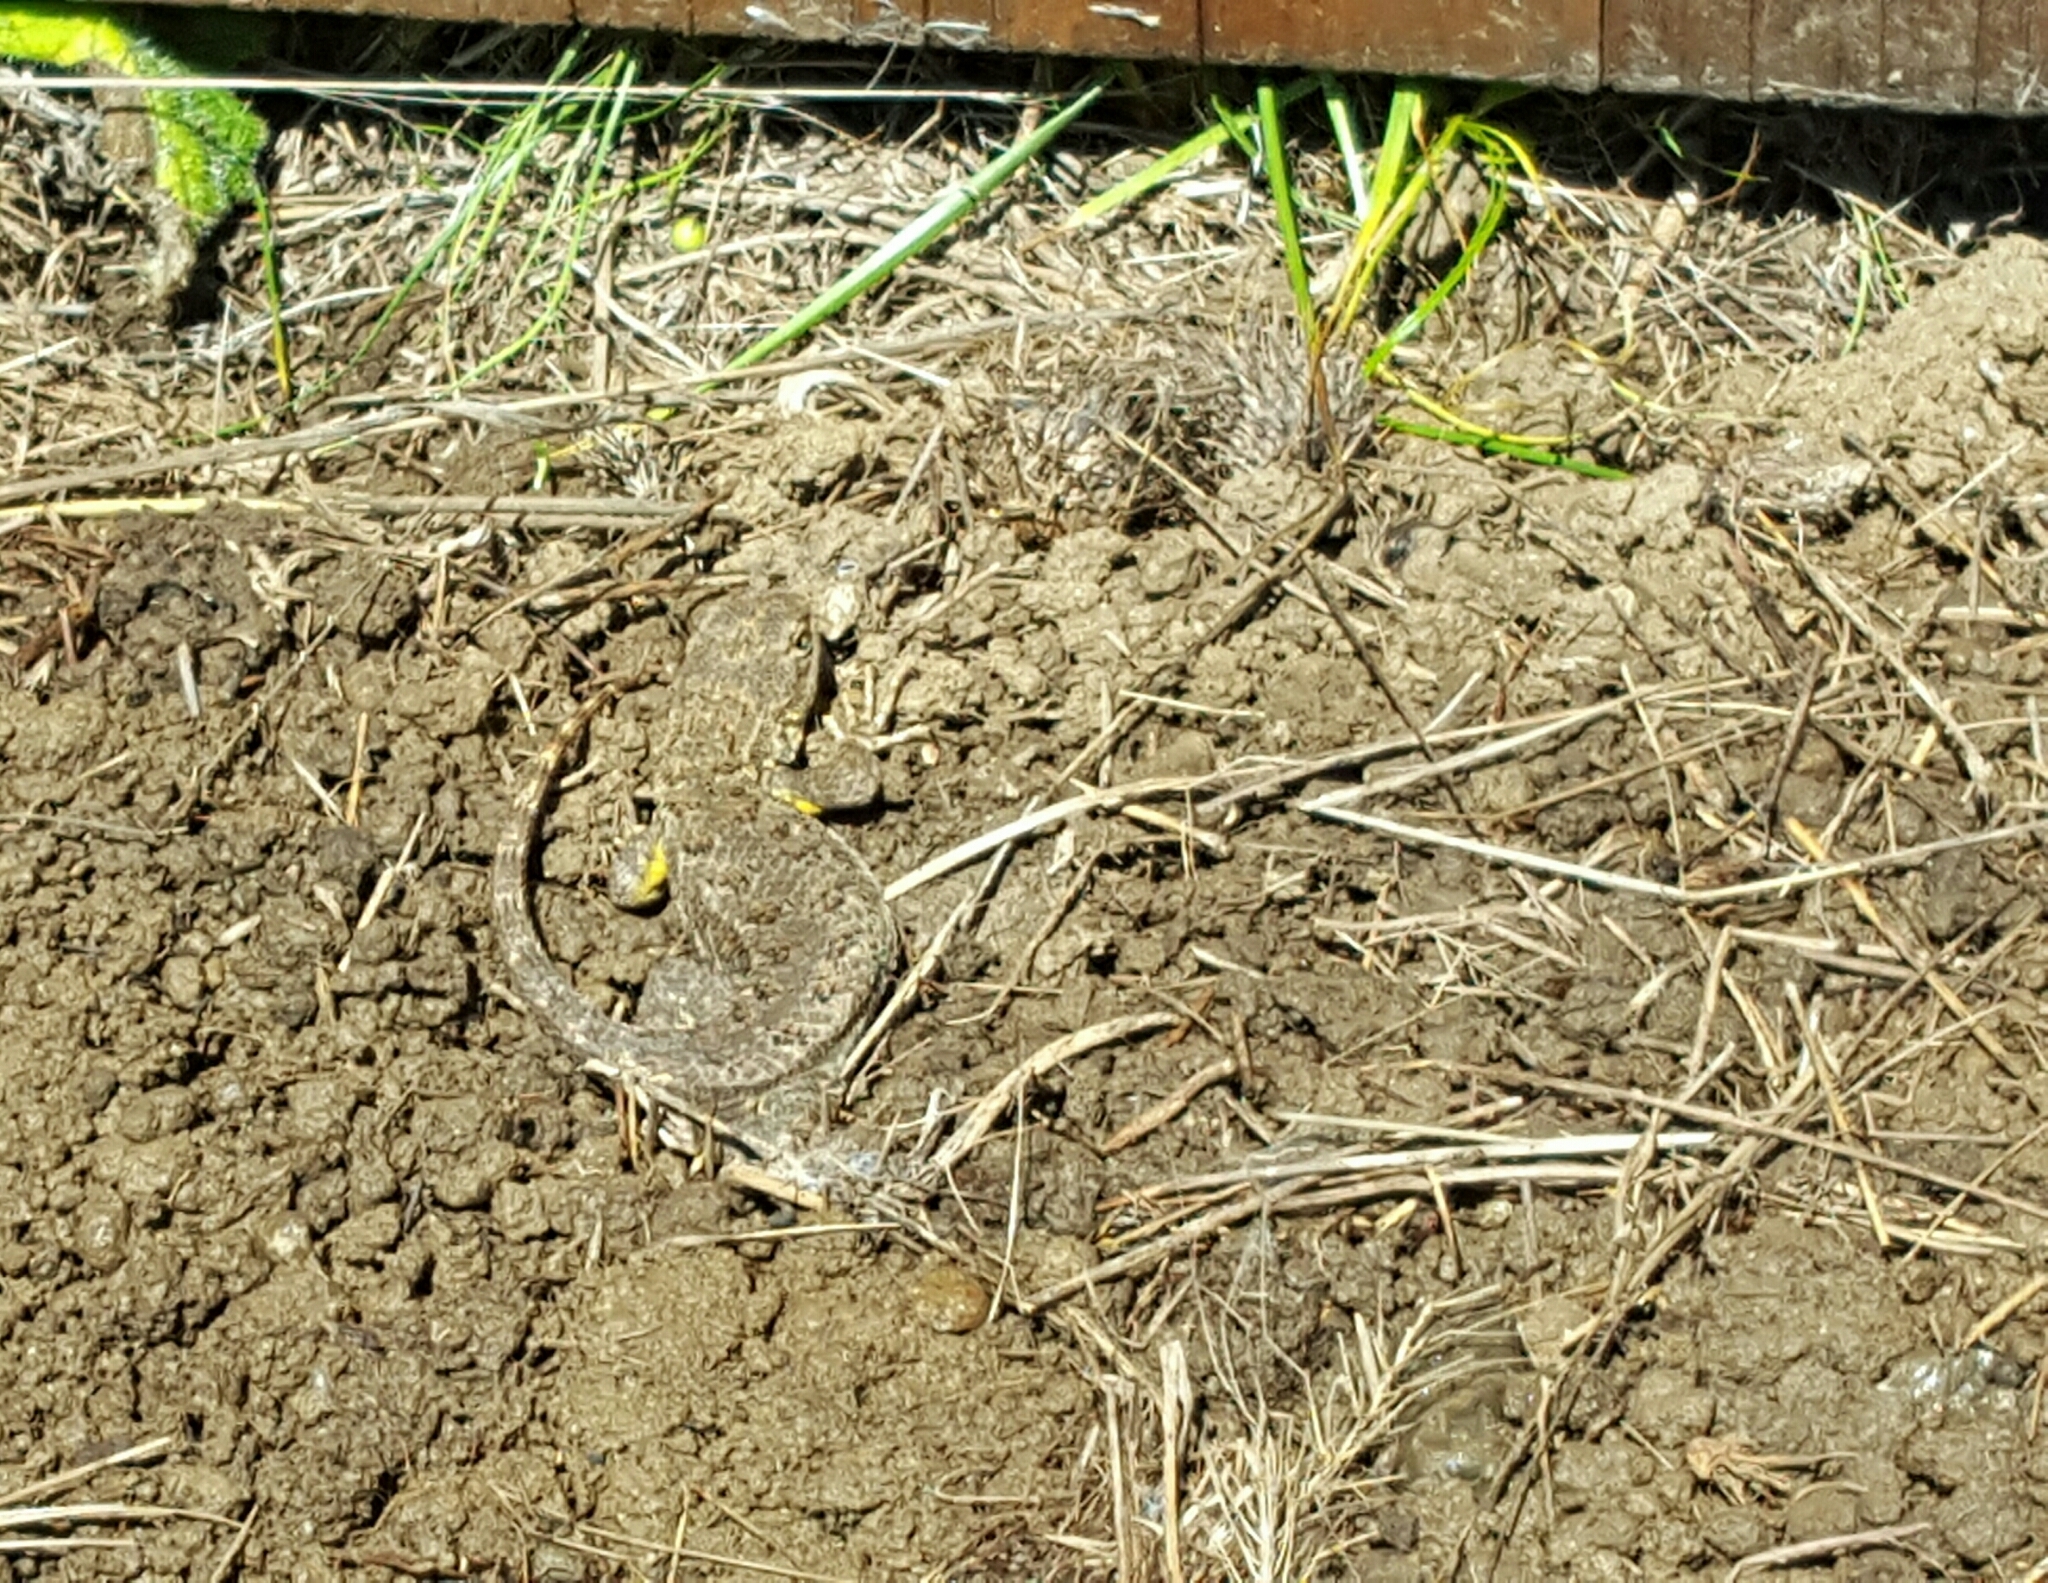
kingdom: Animalia
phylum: Chordata
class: Squamata
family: Phrynosomatidae
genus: Sceloporus
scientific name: Sceloporus occidentalis
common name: Western fence lizard
